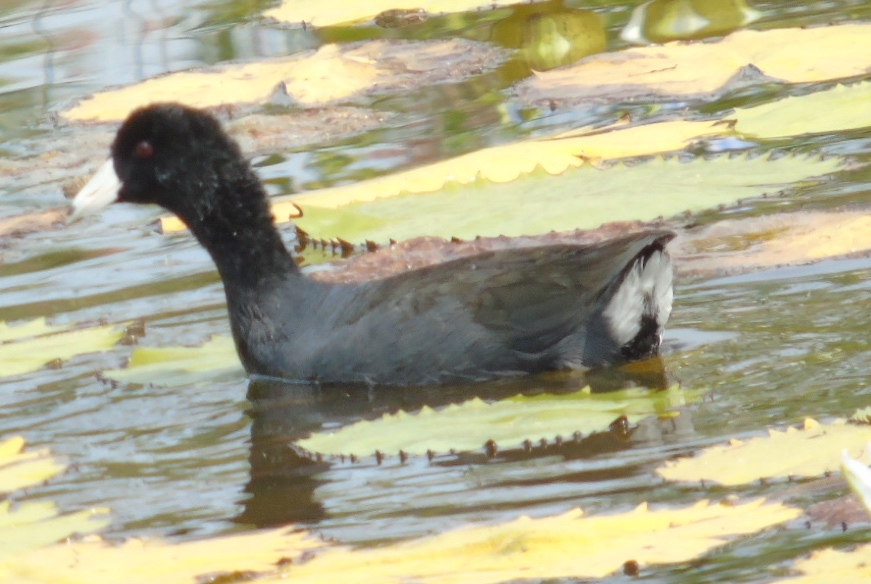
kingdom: Animalia
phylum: Chordata
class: Aves
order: Gruiformes
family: Rallidae
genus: Fulica
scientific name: Fulica americana
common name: American coot
